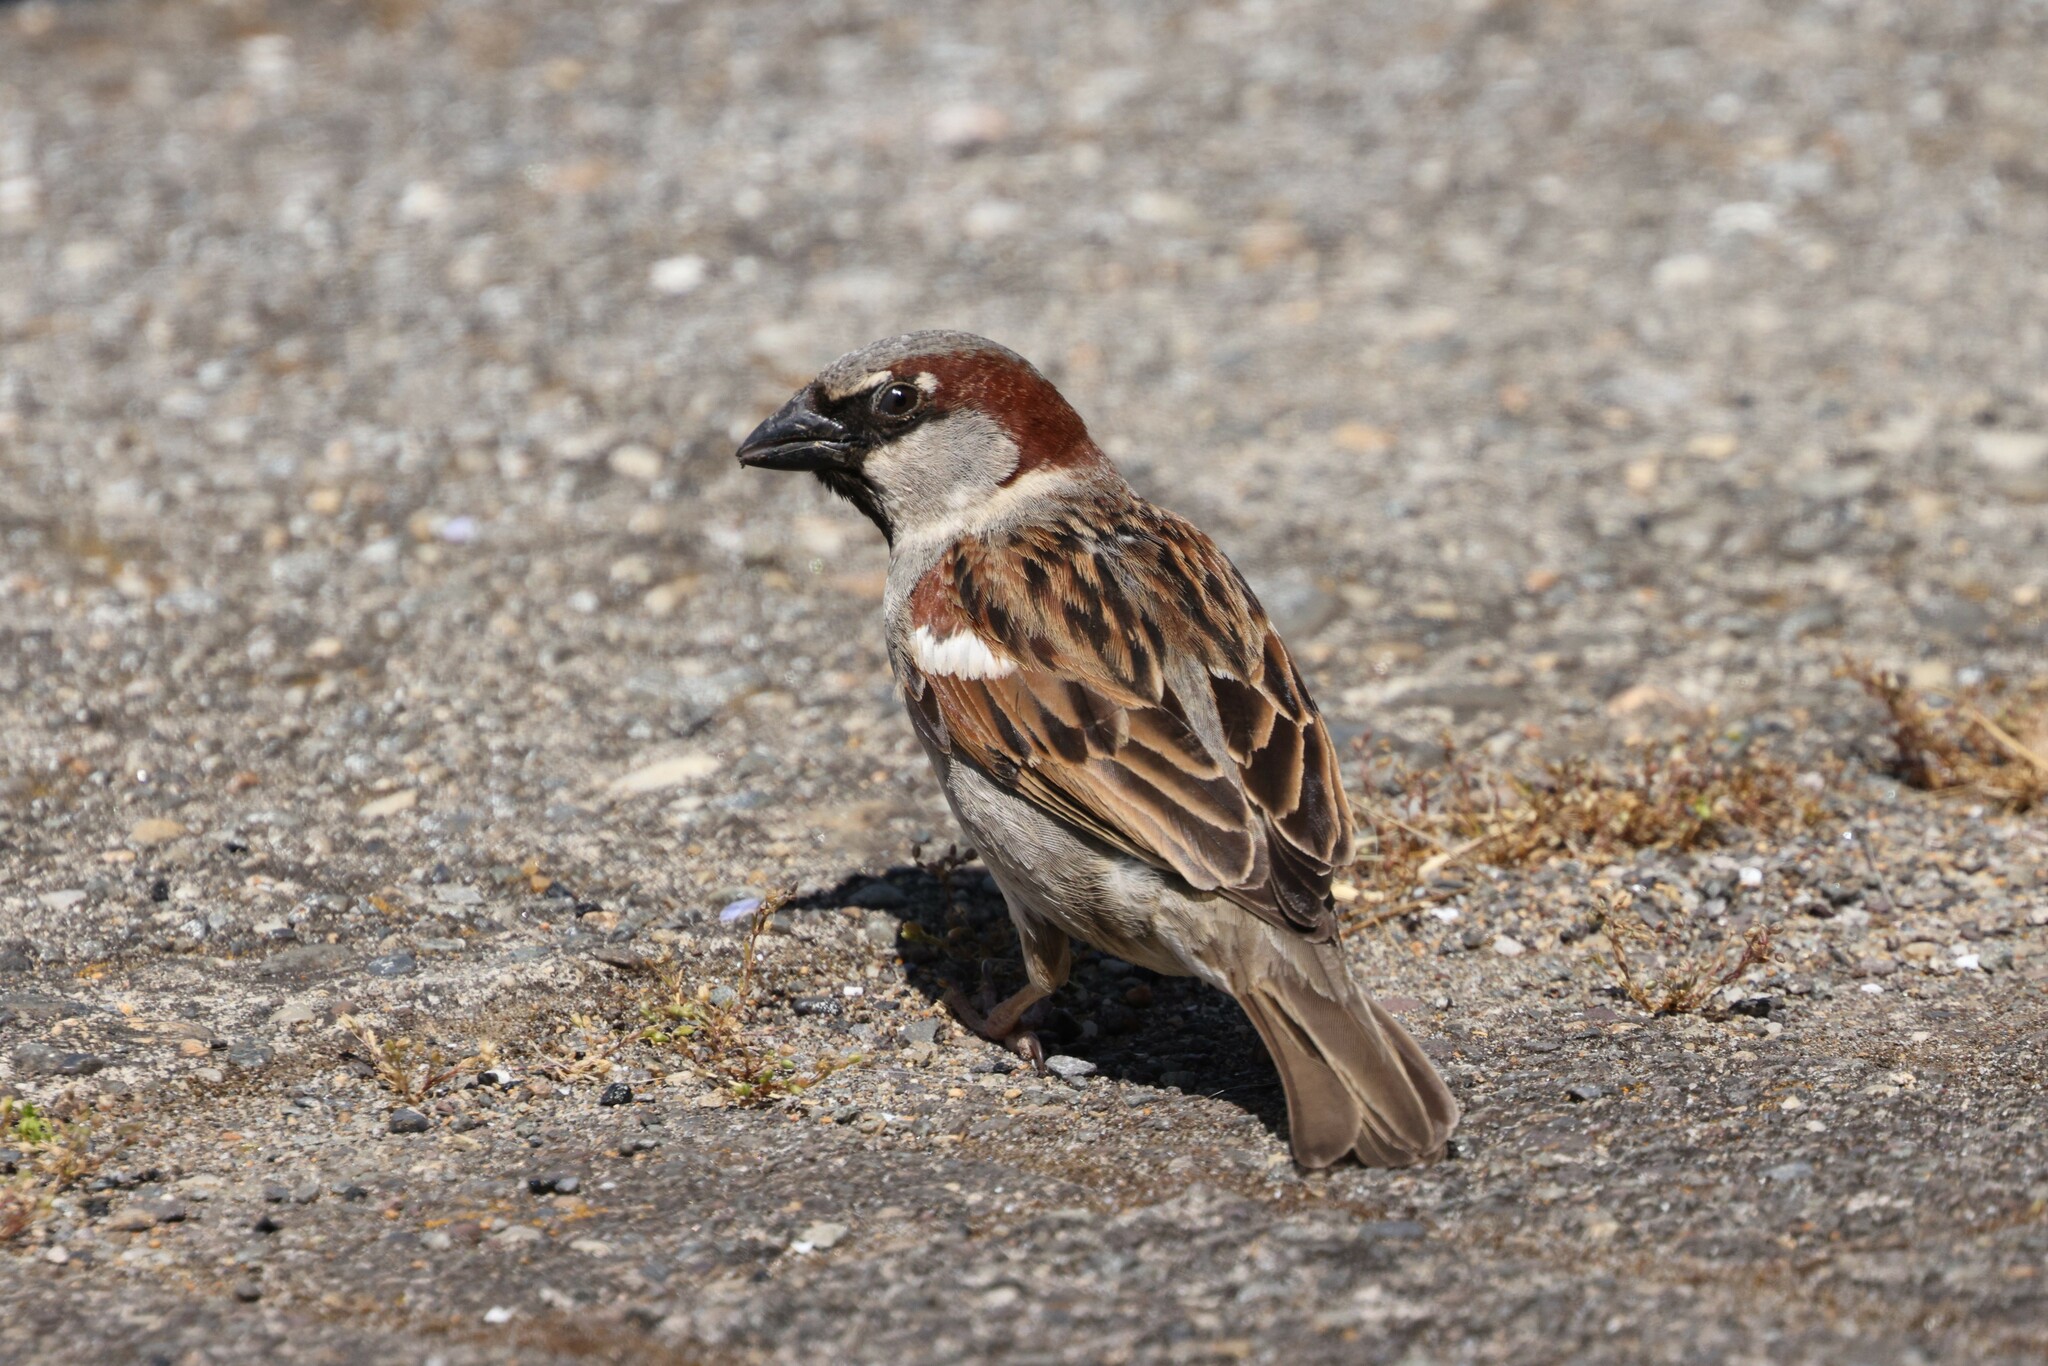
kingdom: Animalia
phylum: Chordata
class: Aves
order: Passeriformes
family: Passeridae
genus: Passer
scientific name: Passer domesticus
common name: House sparrow
